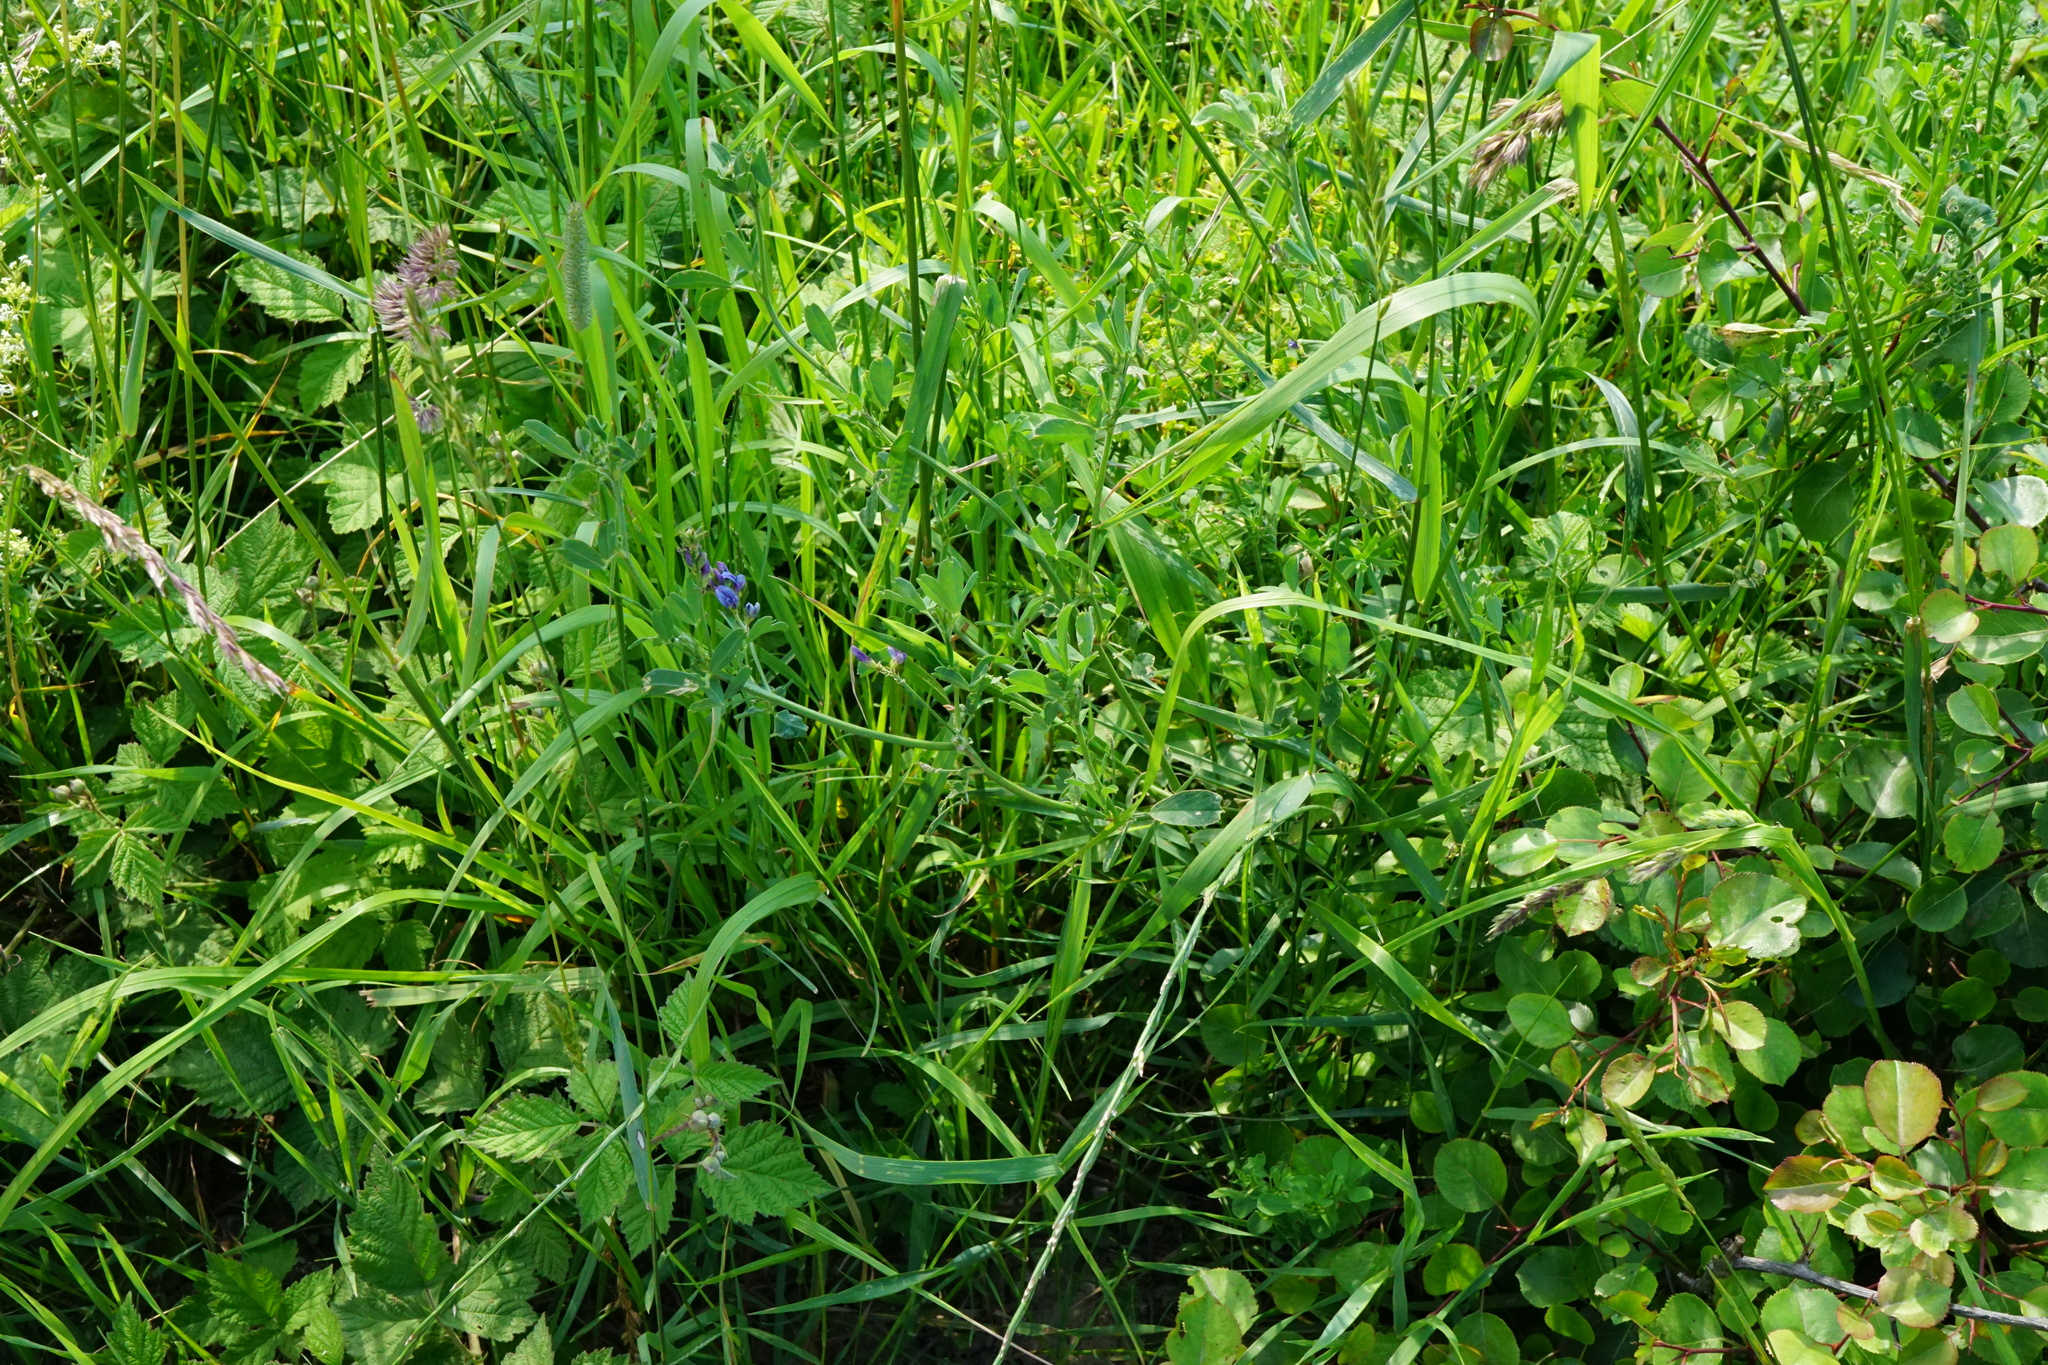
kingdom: Plantae
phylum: Tracheophyta
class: Magnoliopsida
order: Fabales
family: Fabaceae
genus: Medicago
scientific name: Medicago sativa
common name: Alfalfa
